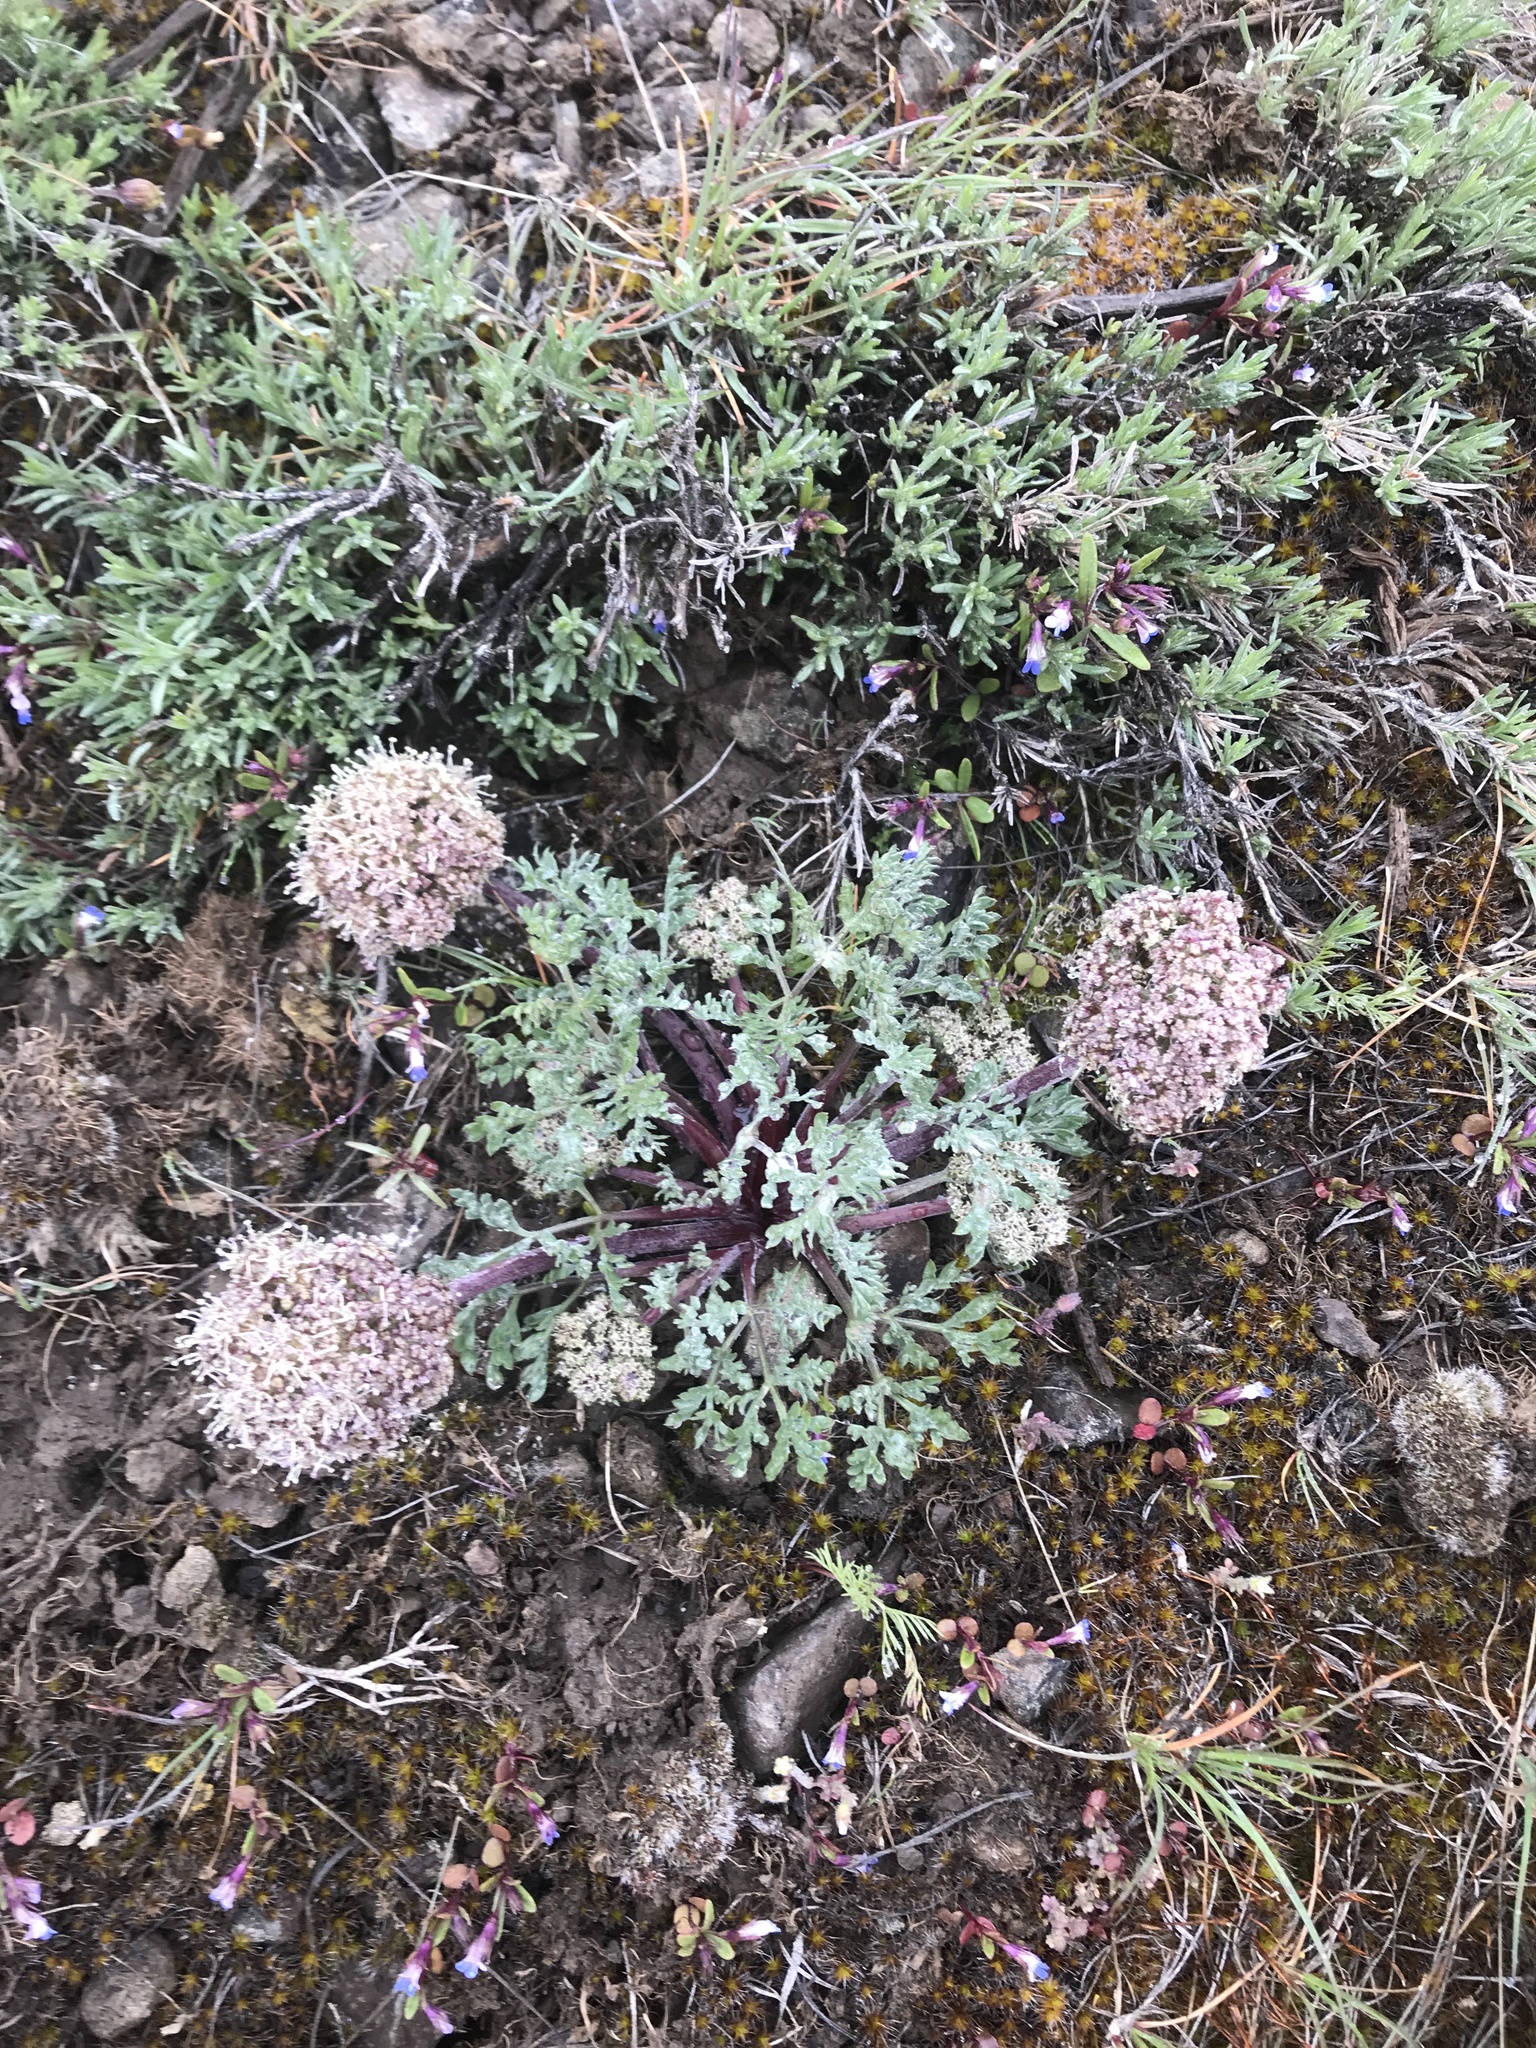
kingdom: Plantae
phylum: Tracheophyta
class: Magnoliopsida
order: Apiales
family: Apiaceae
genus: Lomatium
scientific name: Lomatium macrocarpum
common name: Big-seed biscuitroot
